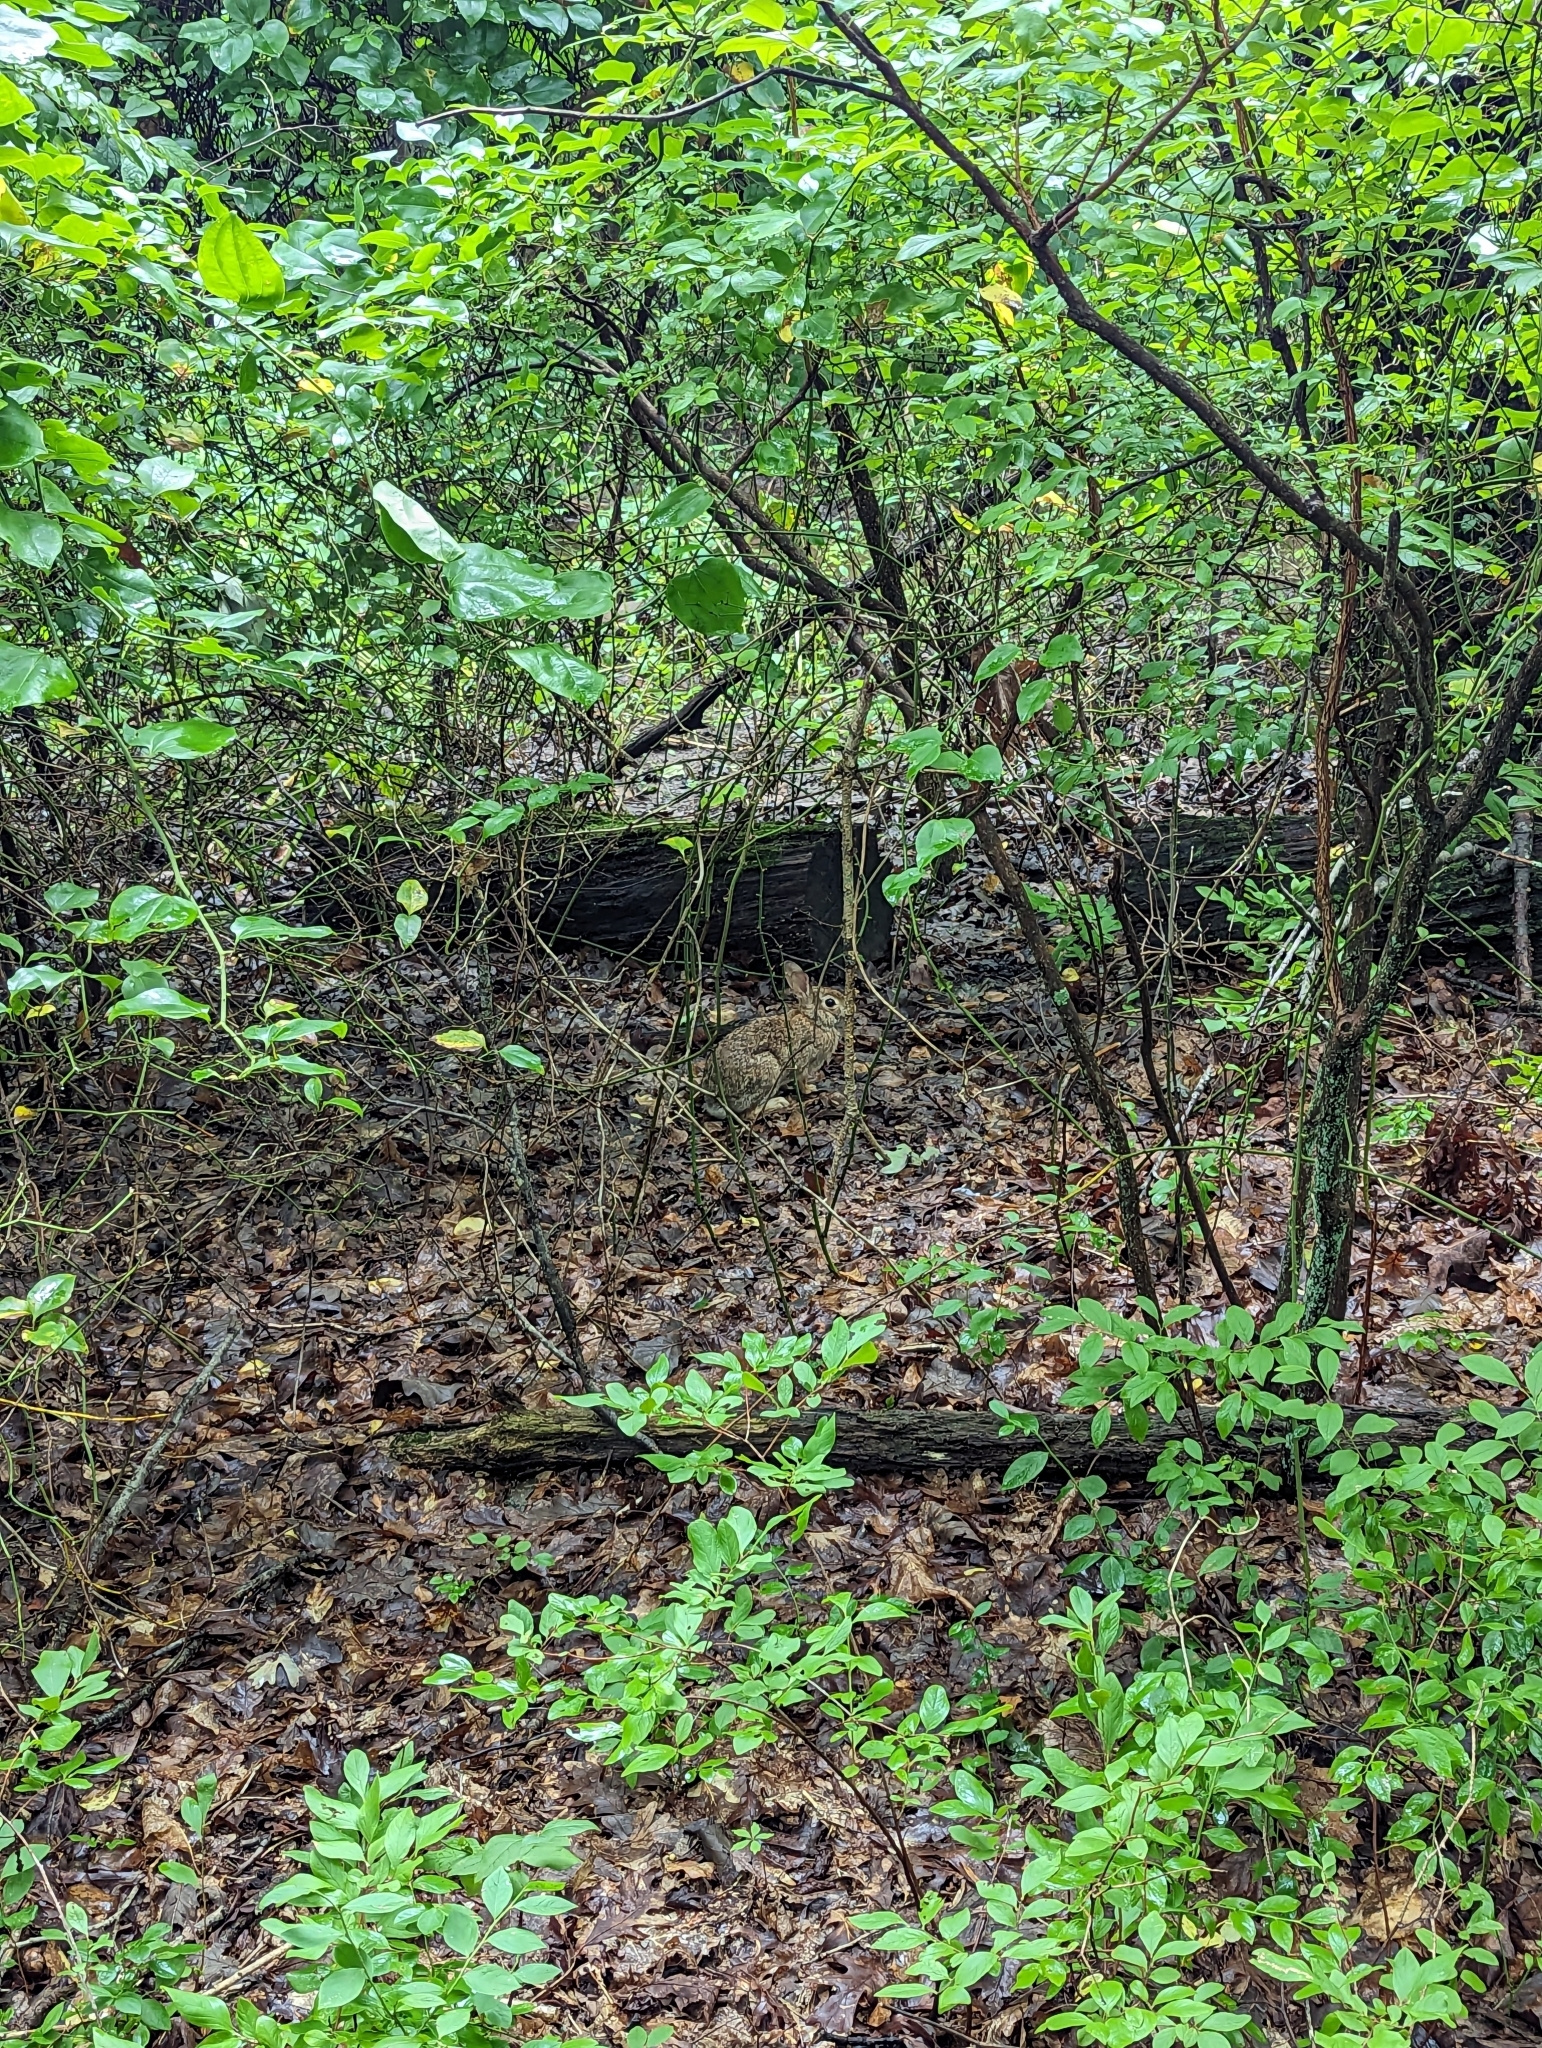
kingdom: Animalia
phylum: Chordata
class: Mammalia
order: Lagomorpha
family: Leporidae
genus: Sylvilagus
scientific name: Sylvilagus floridanus
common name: Eastern cottontail
